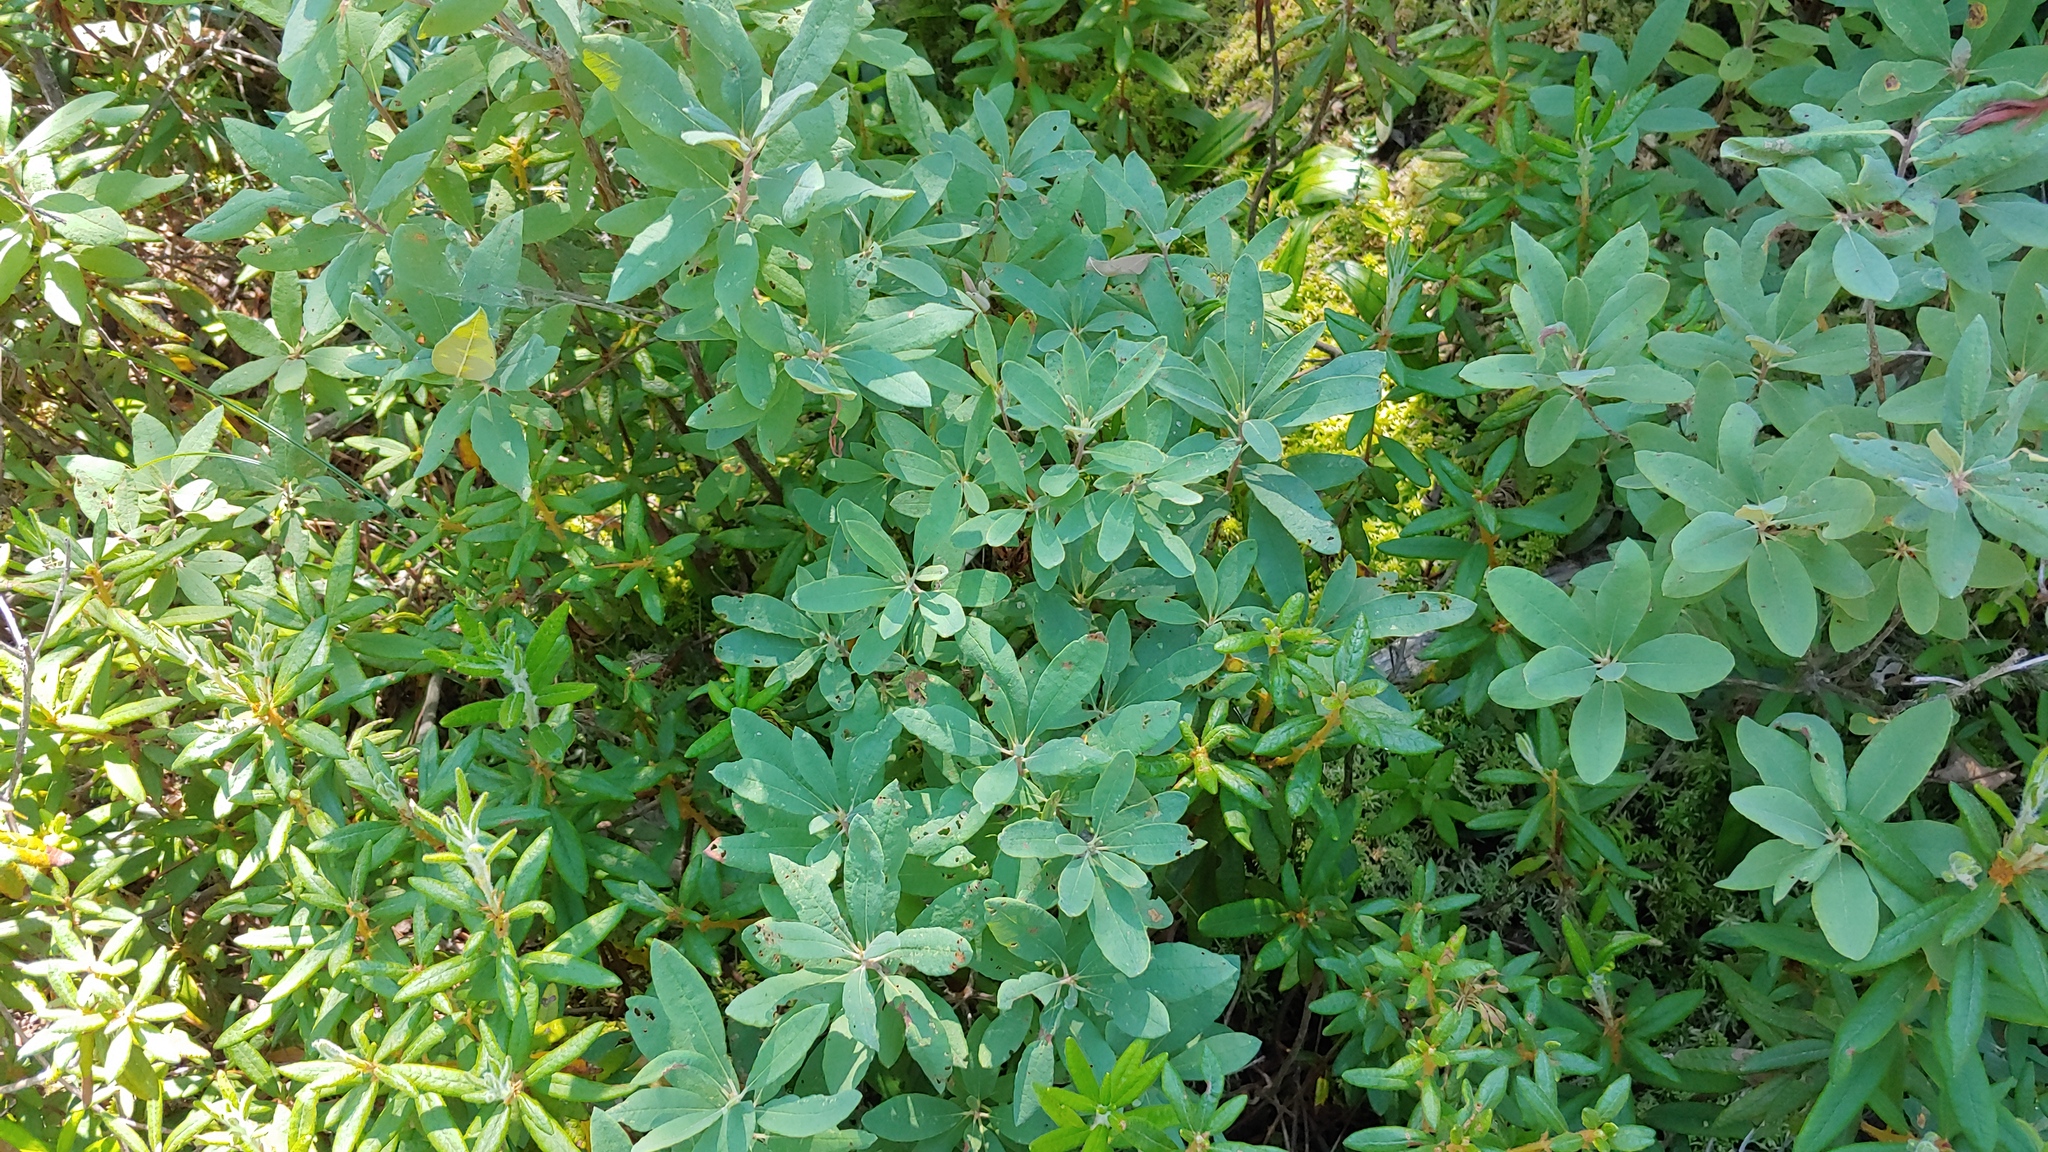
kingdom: Plantae
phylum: Tracheophyta
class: Magnoliopsida
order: Ericales
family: Ericaceae
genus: Rhododendron
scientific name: Rhododendron canadense
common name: Rhodora
